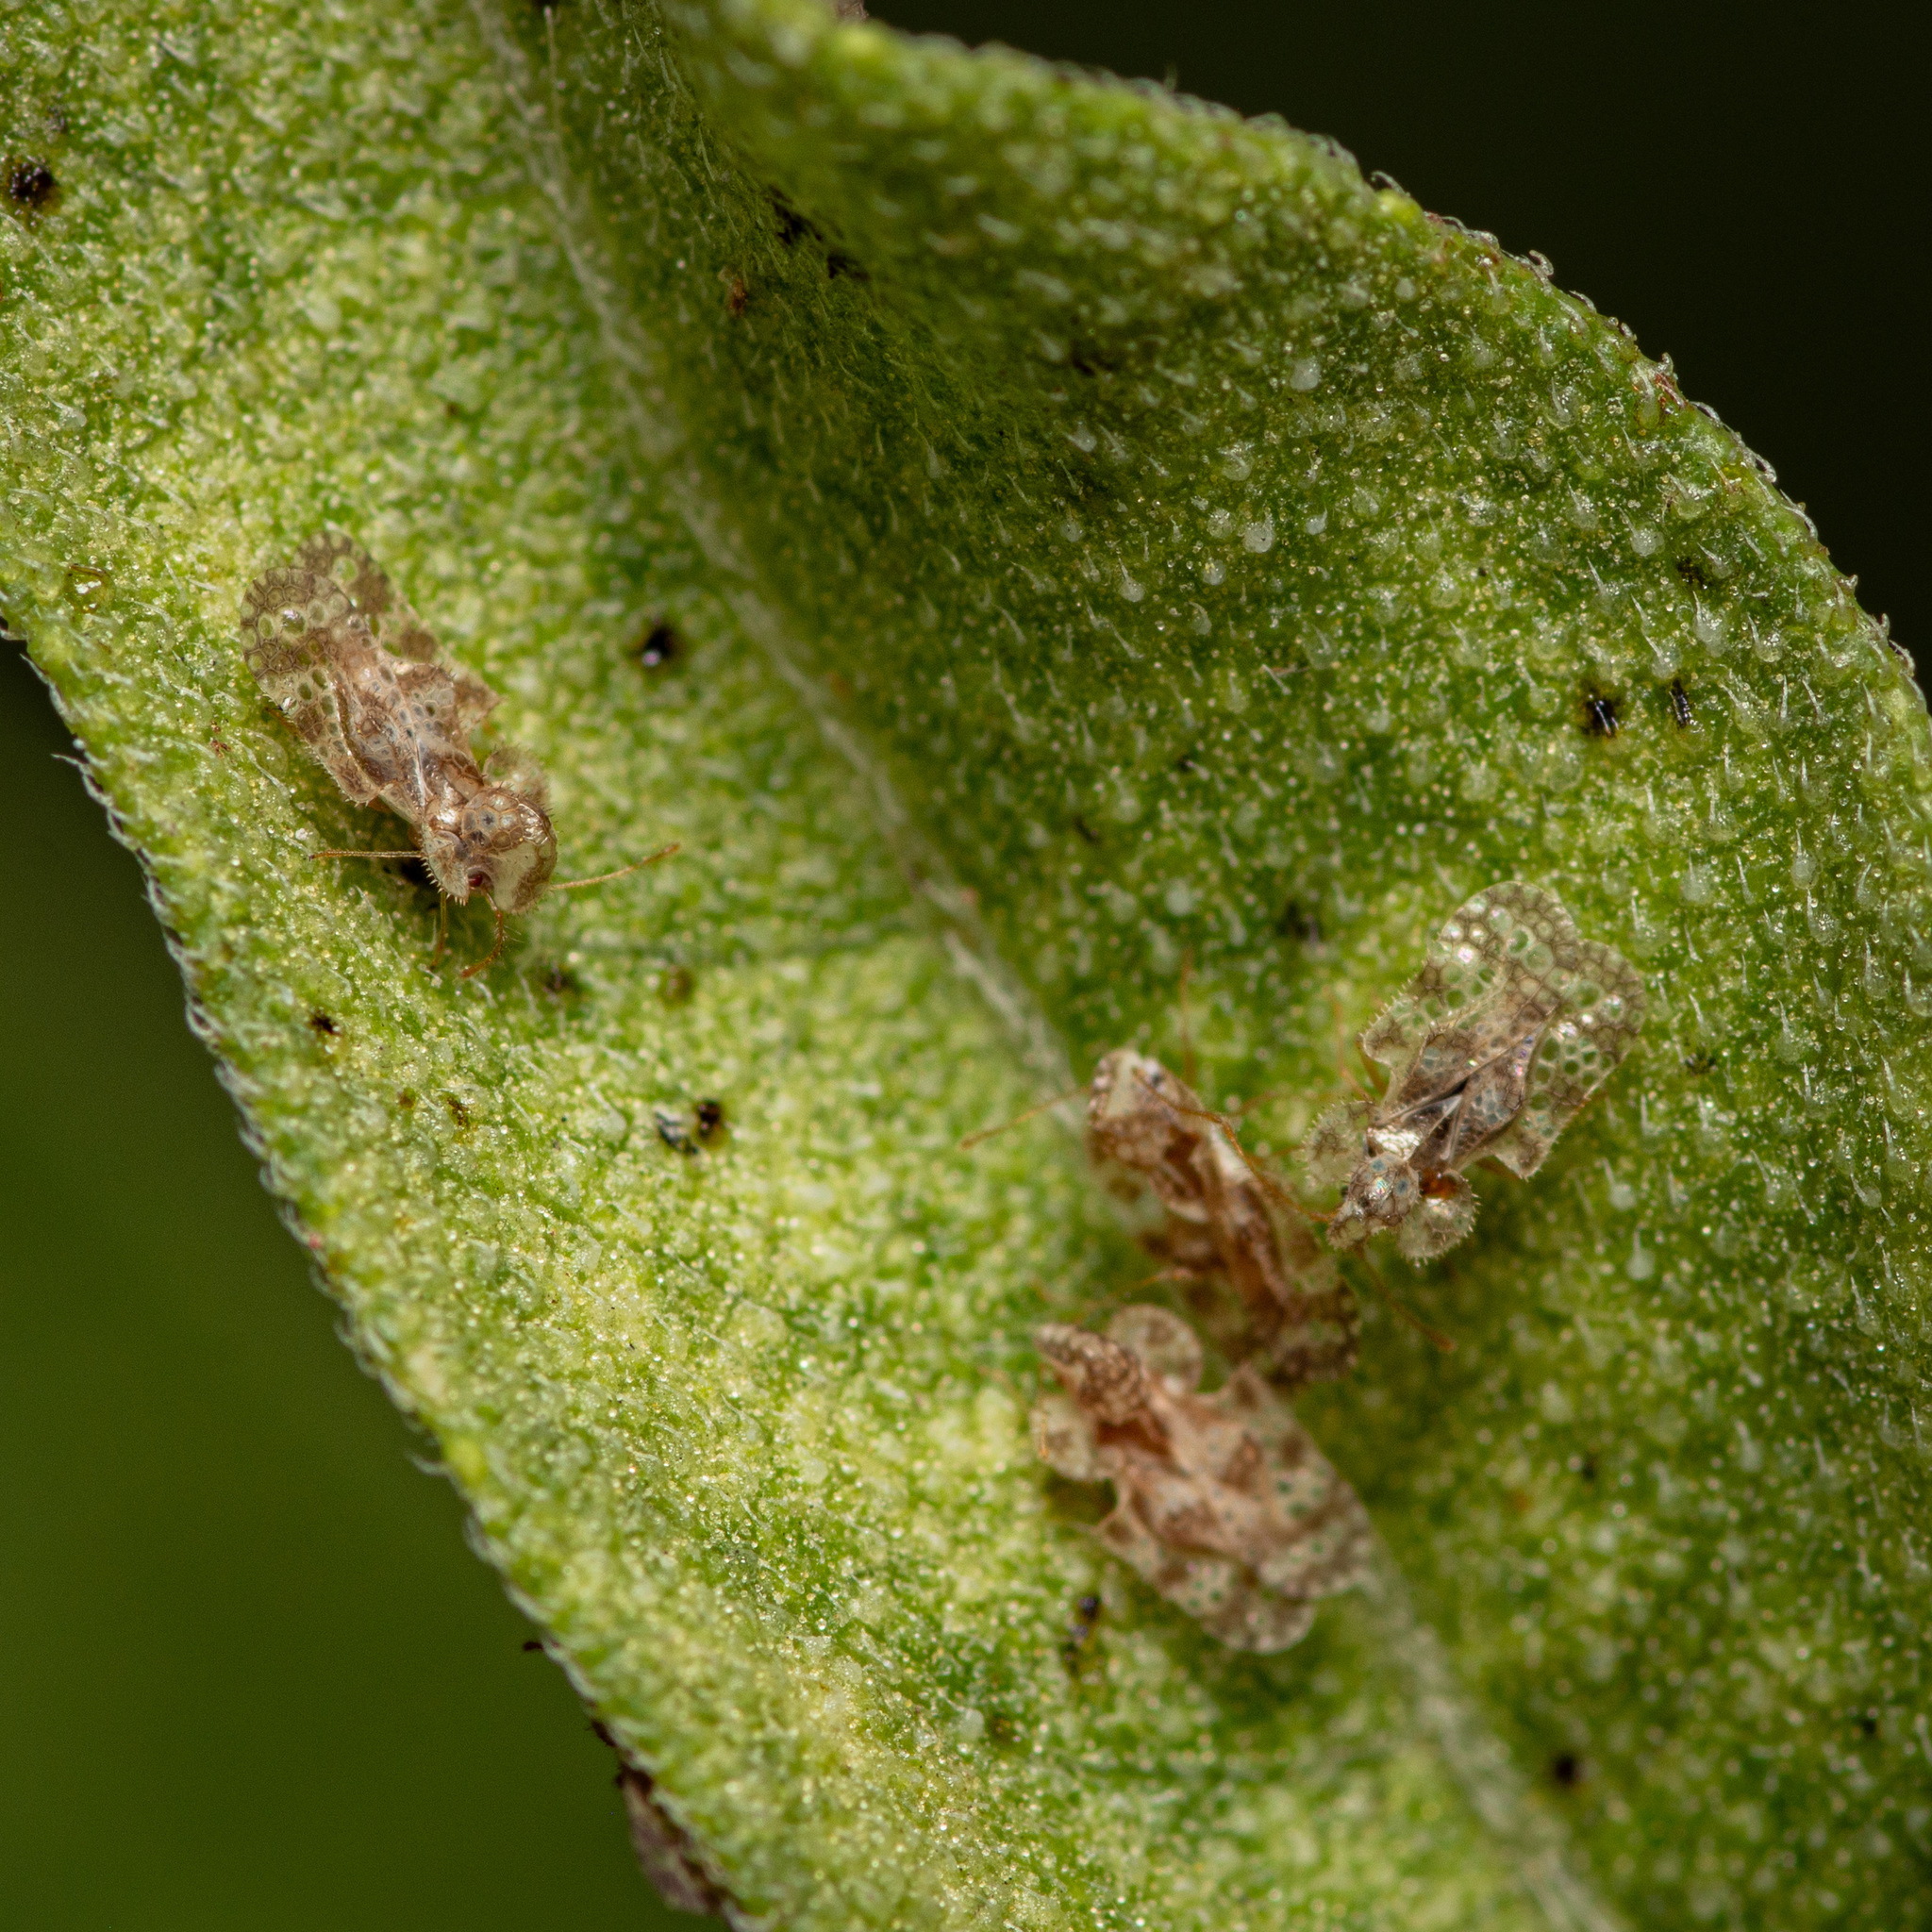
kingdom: Animalia
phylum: Arthropoda
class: Insecta
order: Hemiptera
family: Tingidae
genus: Corythucha
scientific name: Corythucha marmorata
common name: Chrysanthemum lace bug
